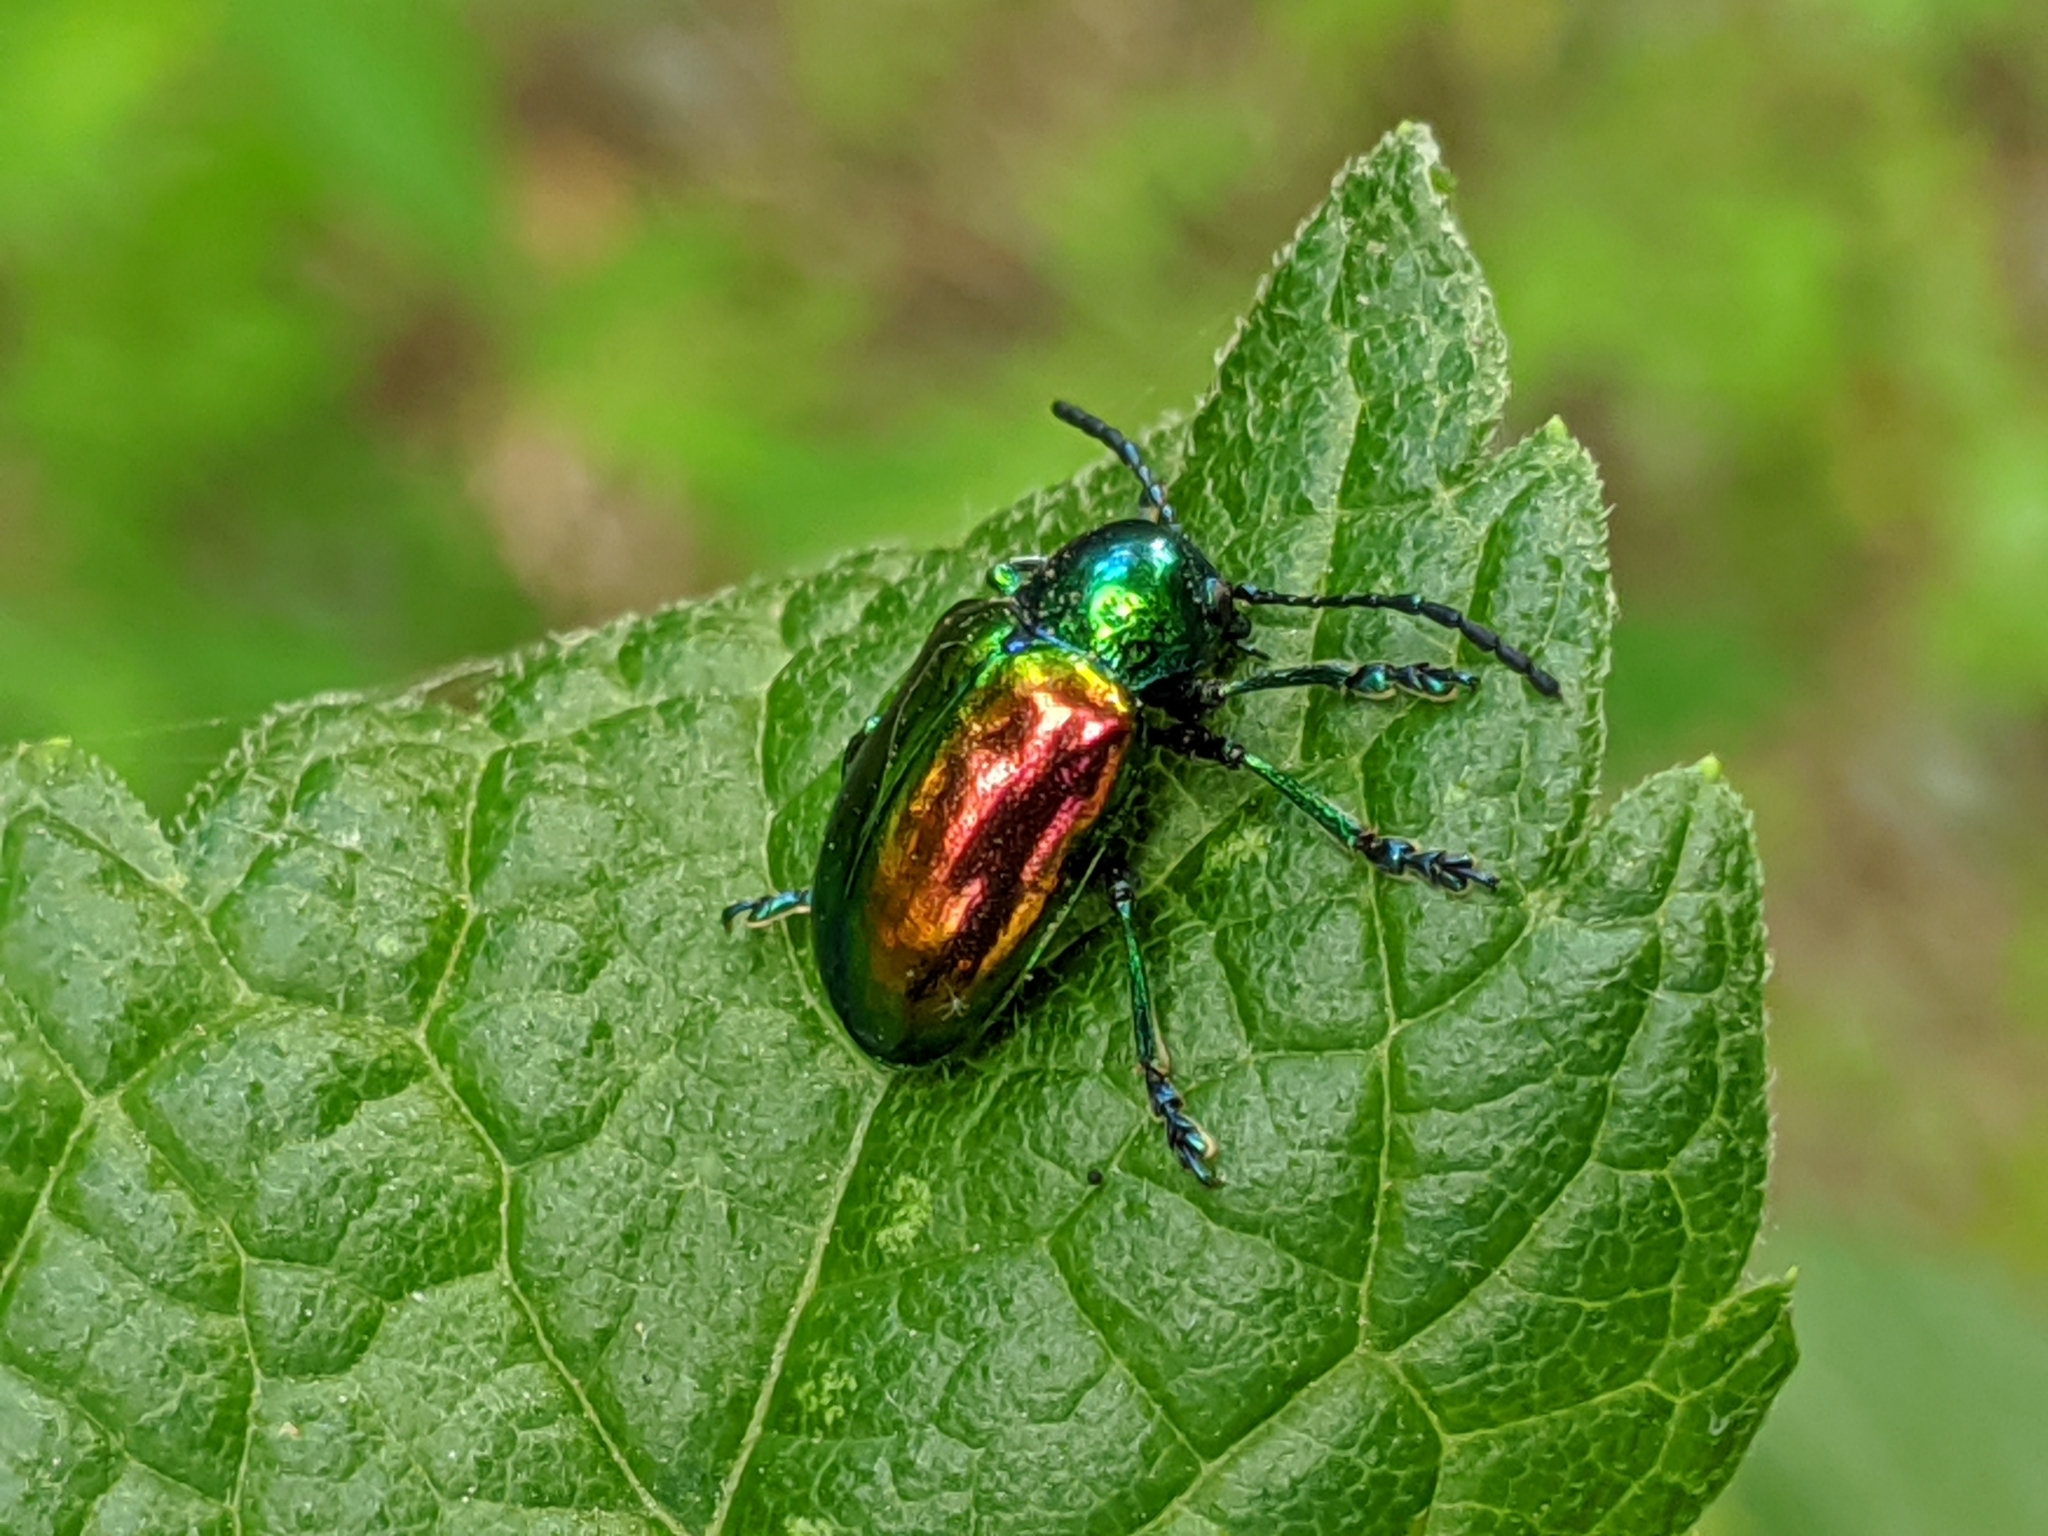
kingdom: Animalia
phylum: Arthropoda
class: Insecta
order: Coleoptera
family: Chrysomelidae
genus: Chrysochus
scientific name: Chrysochus auratus
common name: Dogbane leaf beetle
